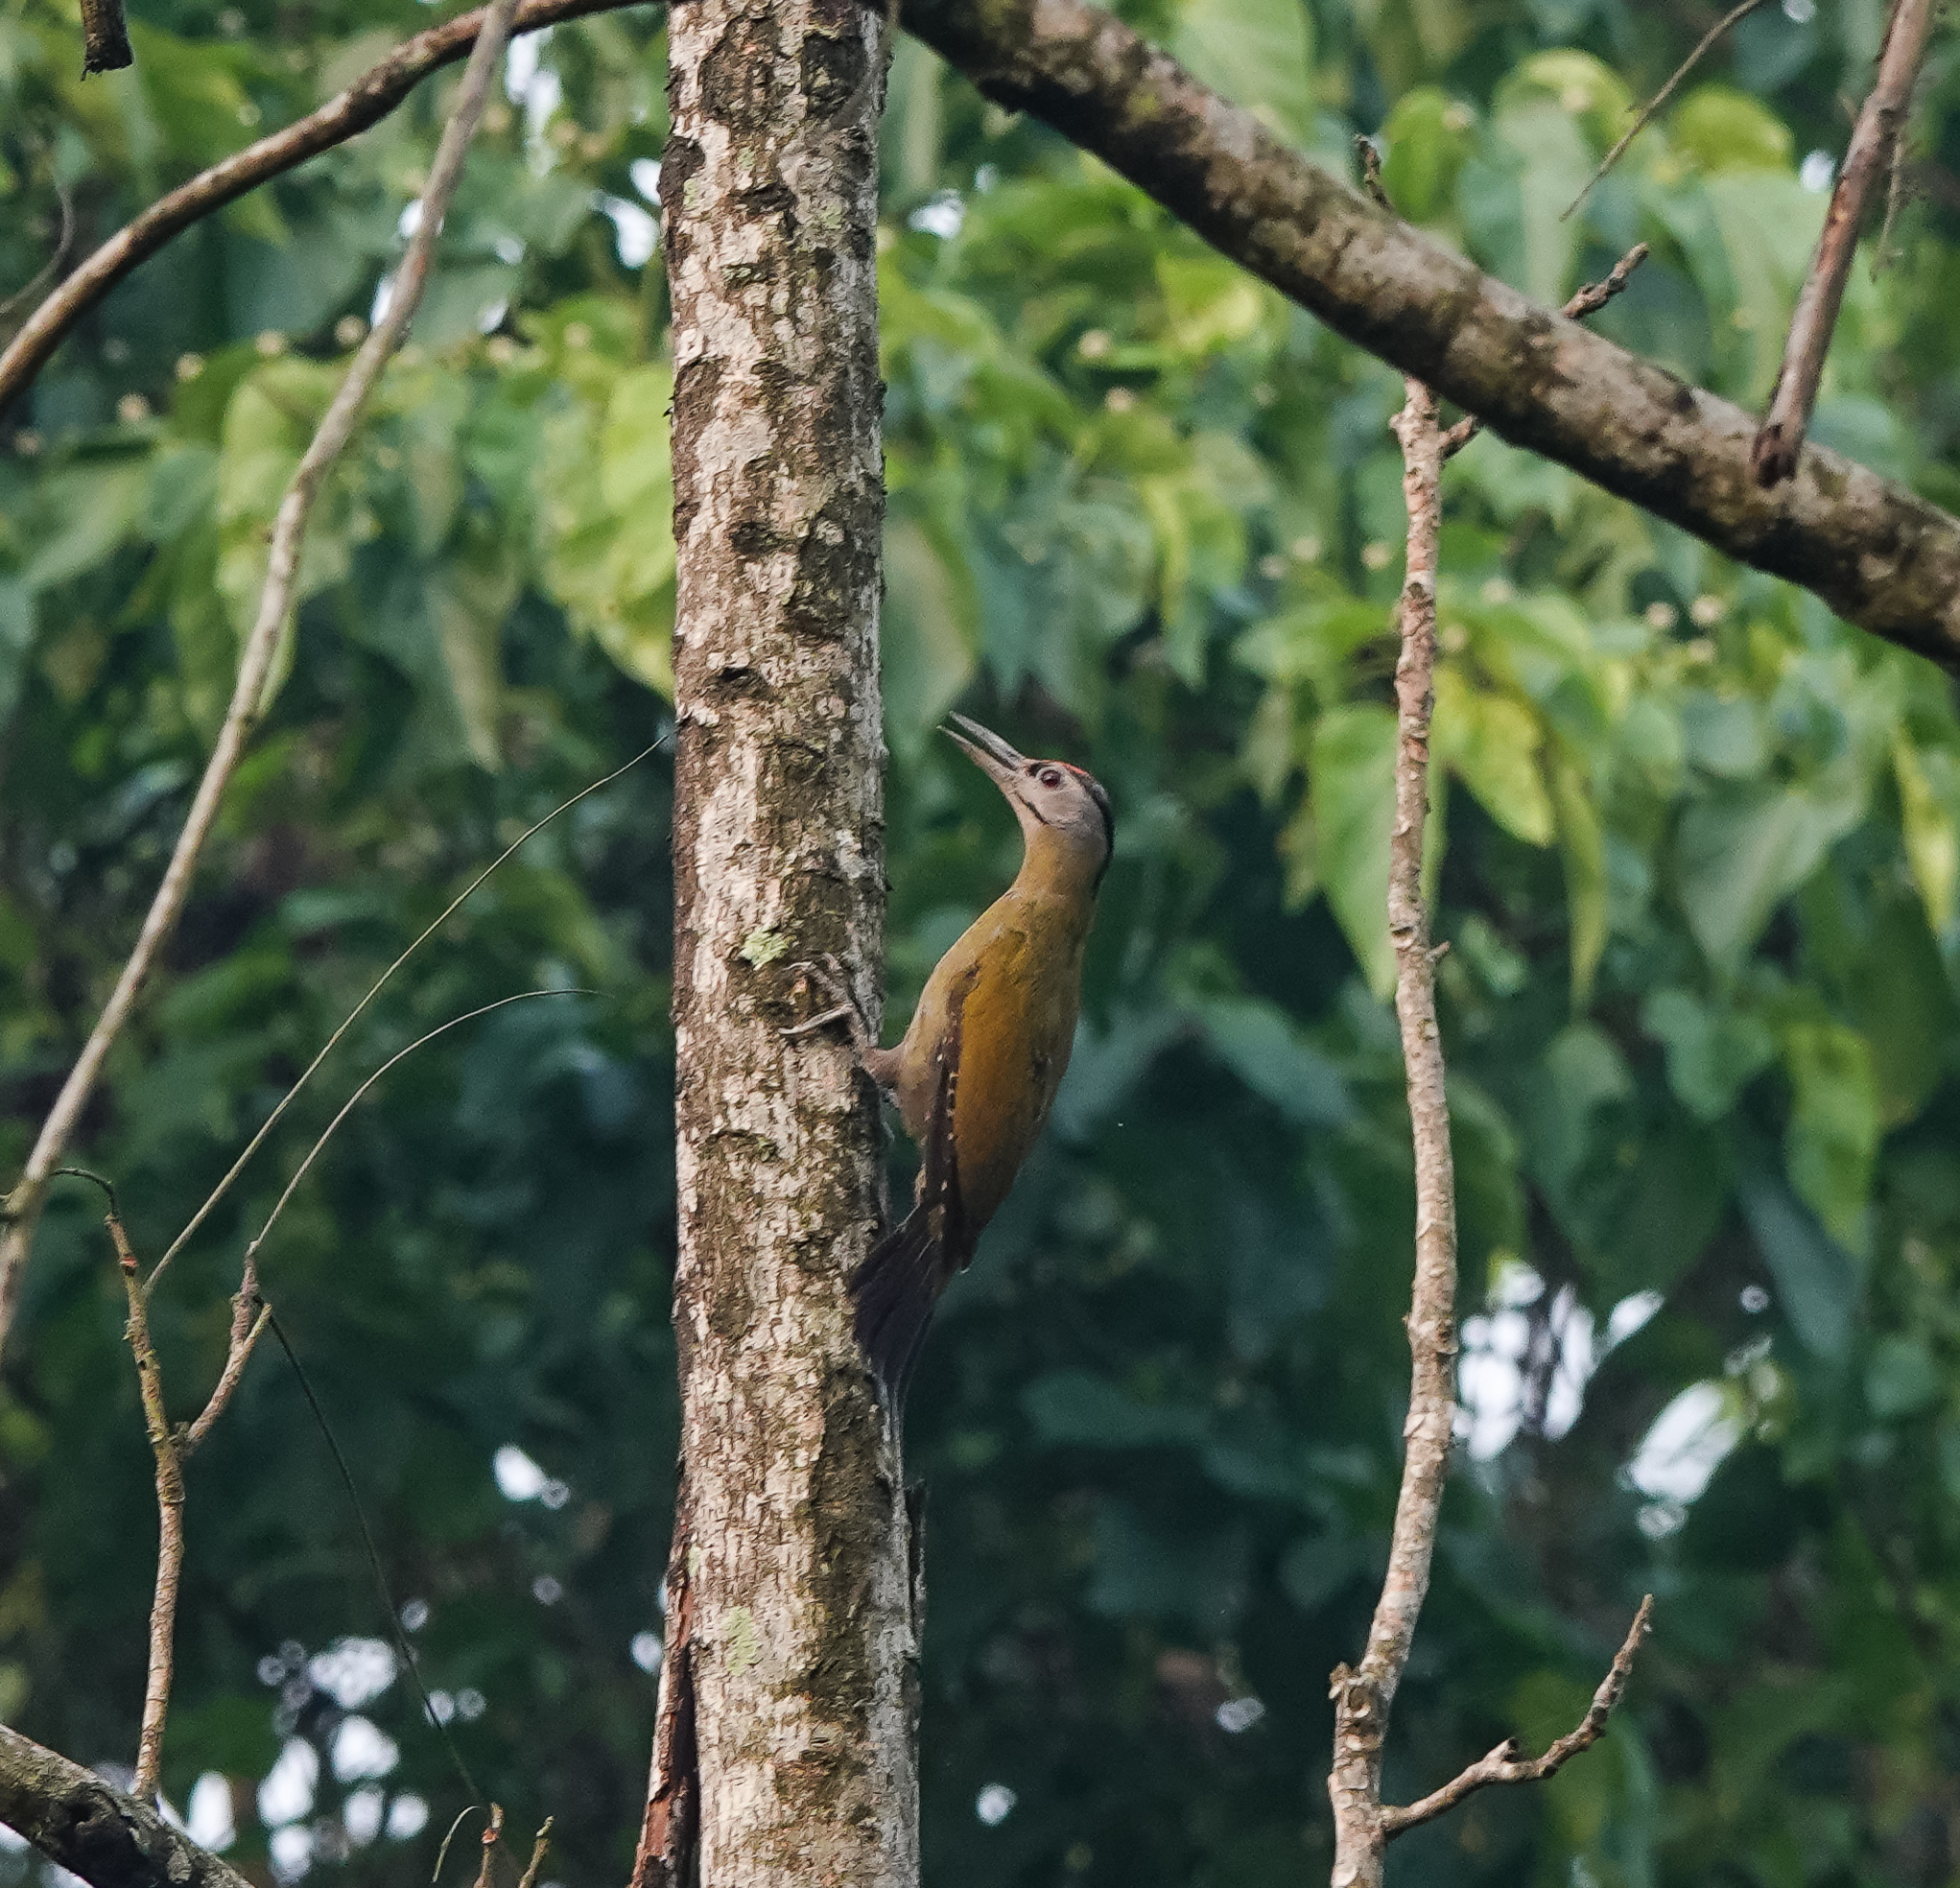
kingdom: Animalia
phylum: Chordata
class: Aves
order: Piciformes
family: Picidae
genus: Picus
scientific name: Picus canus
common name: Grey-headed woodpecker
